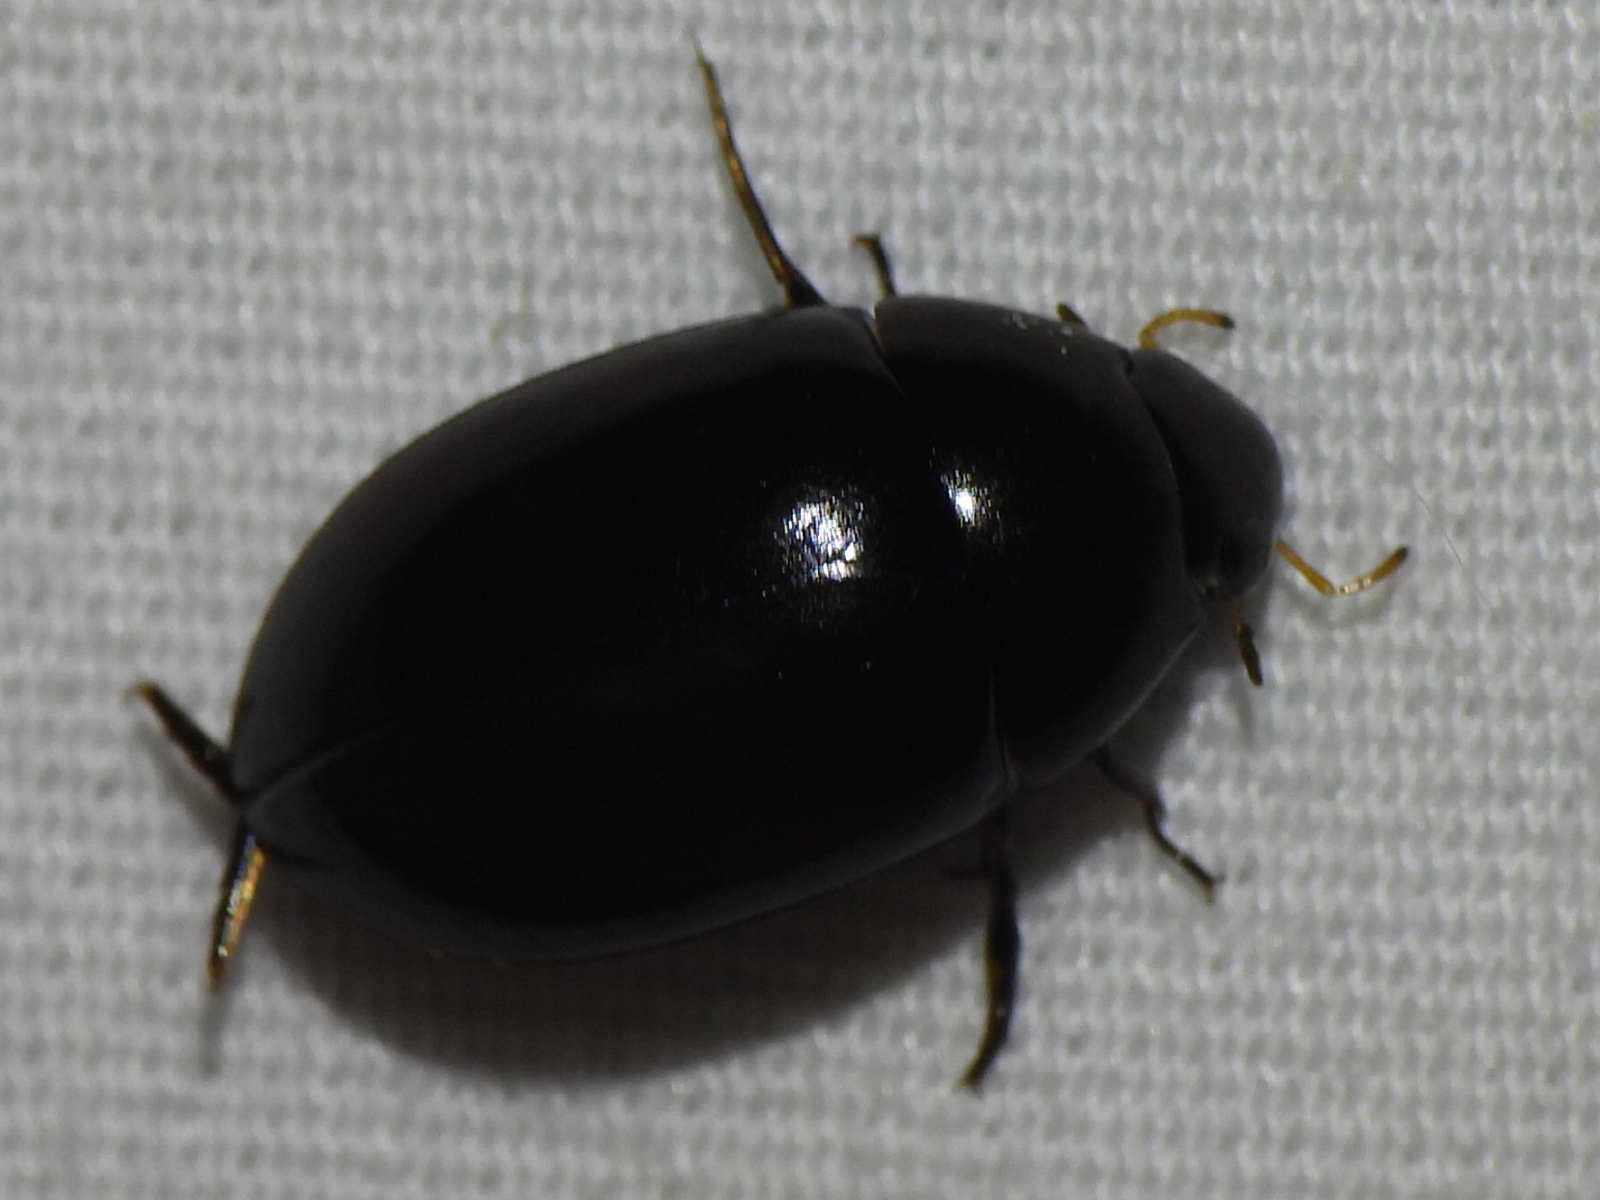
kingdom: Animalia
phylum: Arthropoda
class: Insecta
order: Coleoptera
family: Hydrophilidae
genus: Tropisternus
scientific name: Tropisternus
